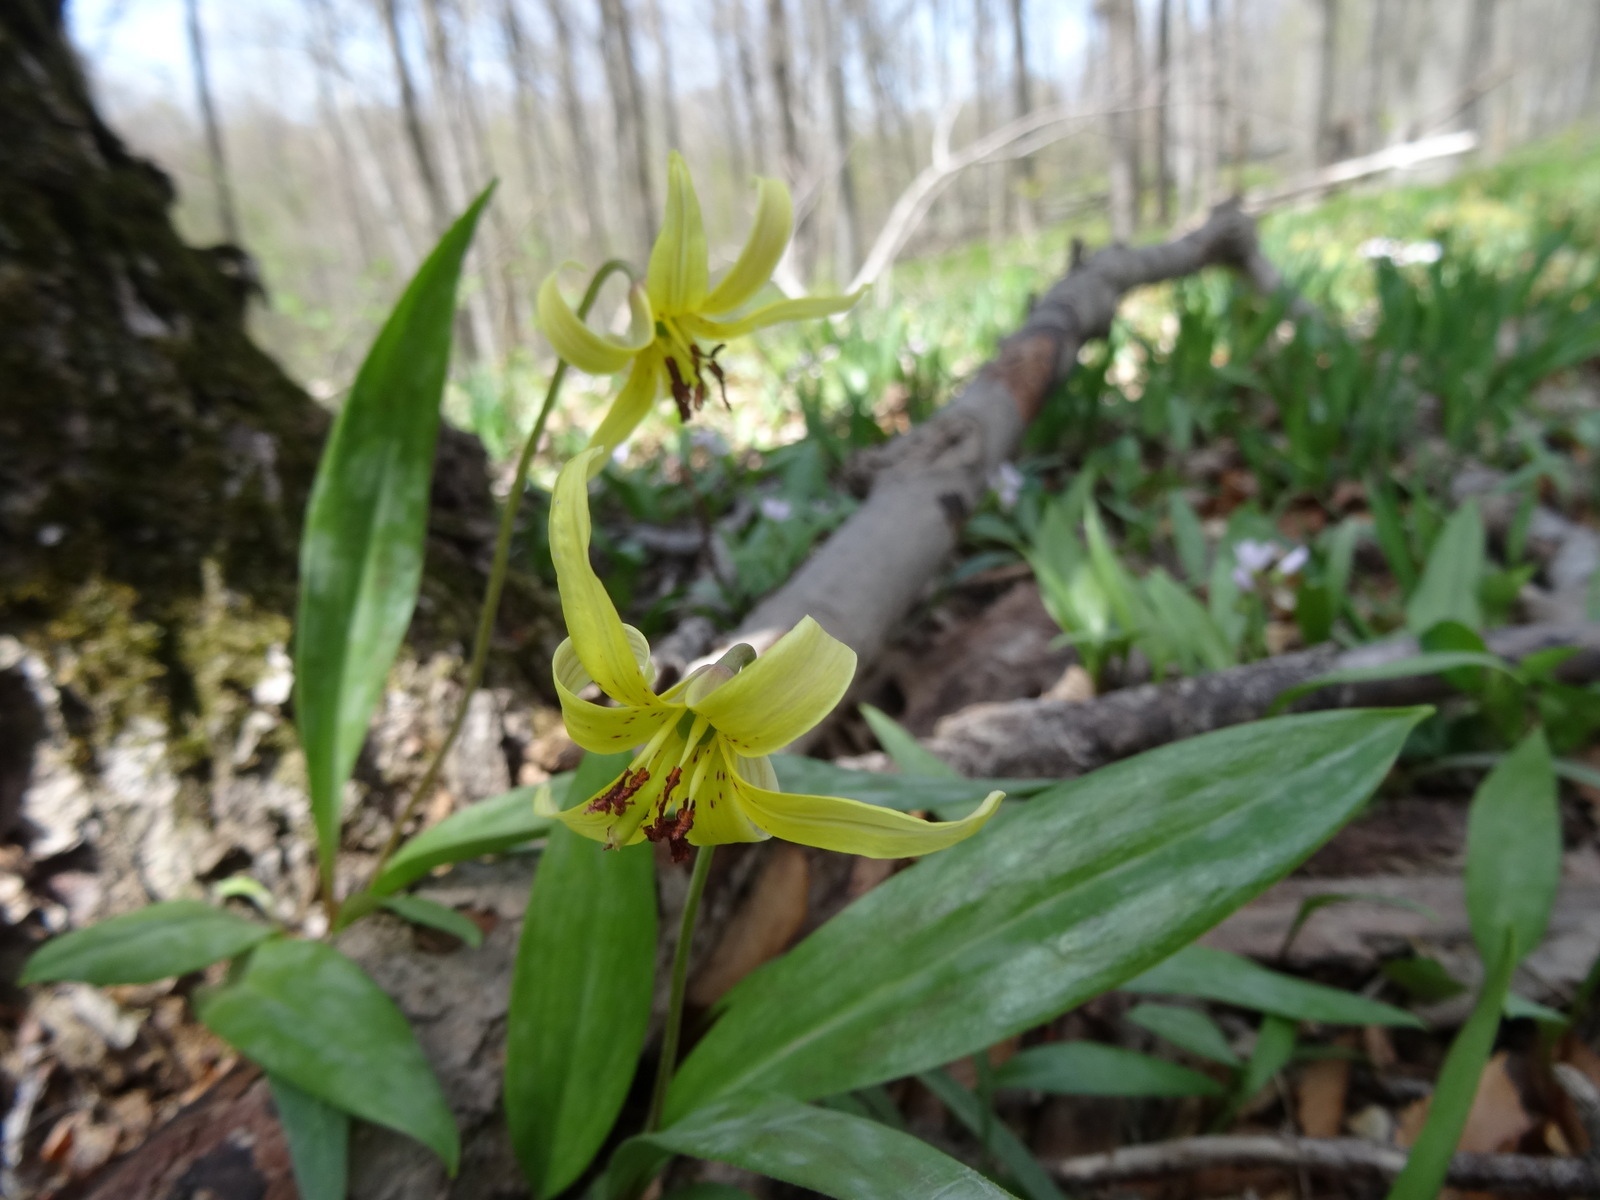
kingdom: Plantae
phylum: Tracheophyta
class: Liliopsida
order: Liliales
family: Liliaceae
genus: Erythronium
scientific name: Erythronium americanum
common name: Yellow adder's-tongue
